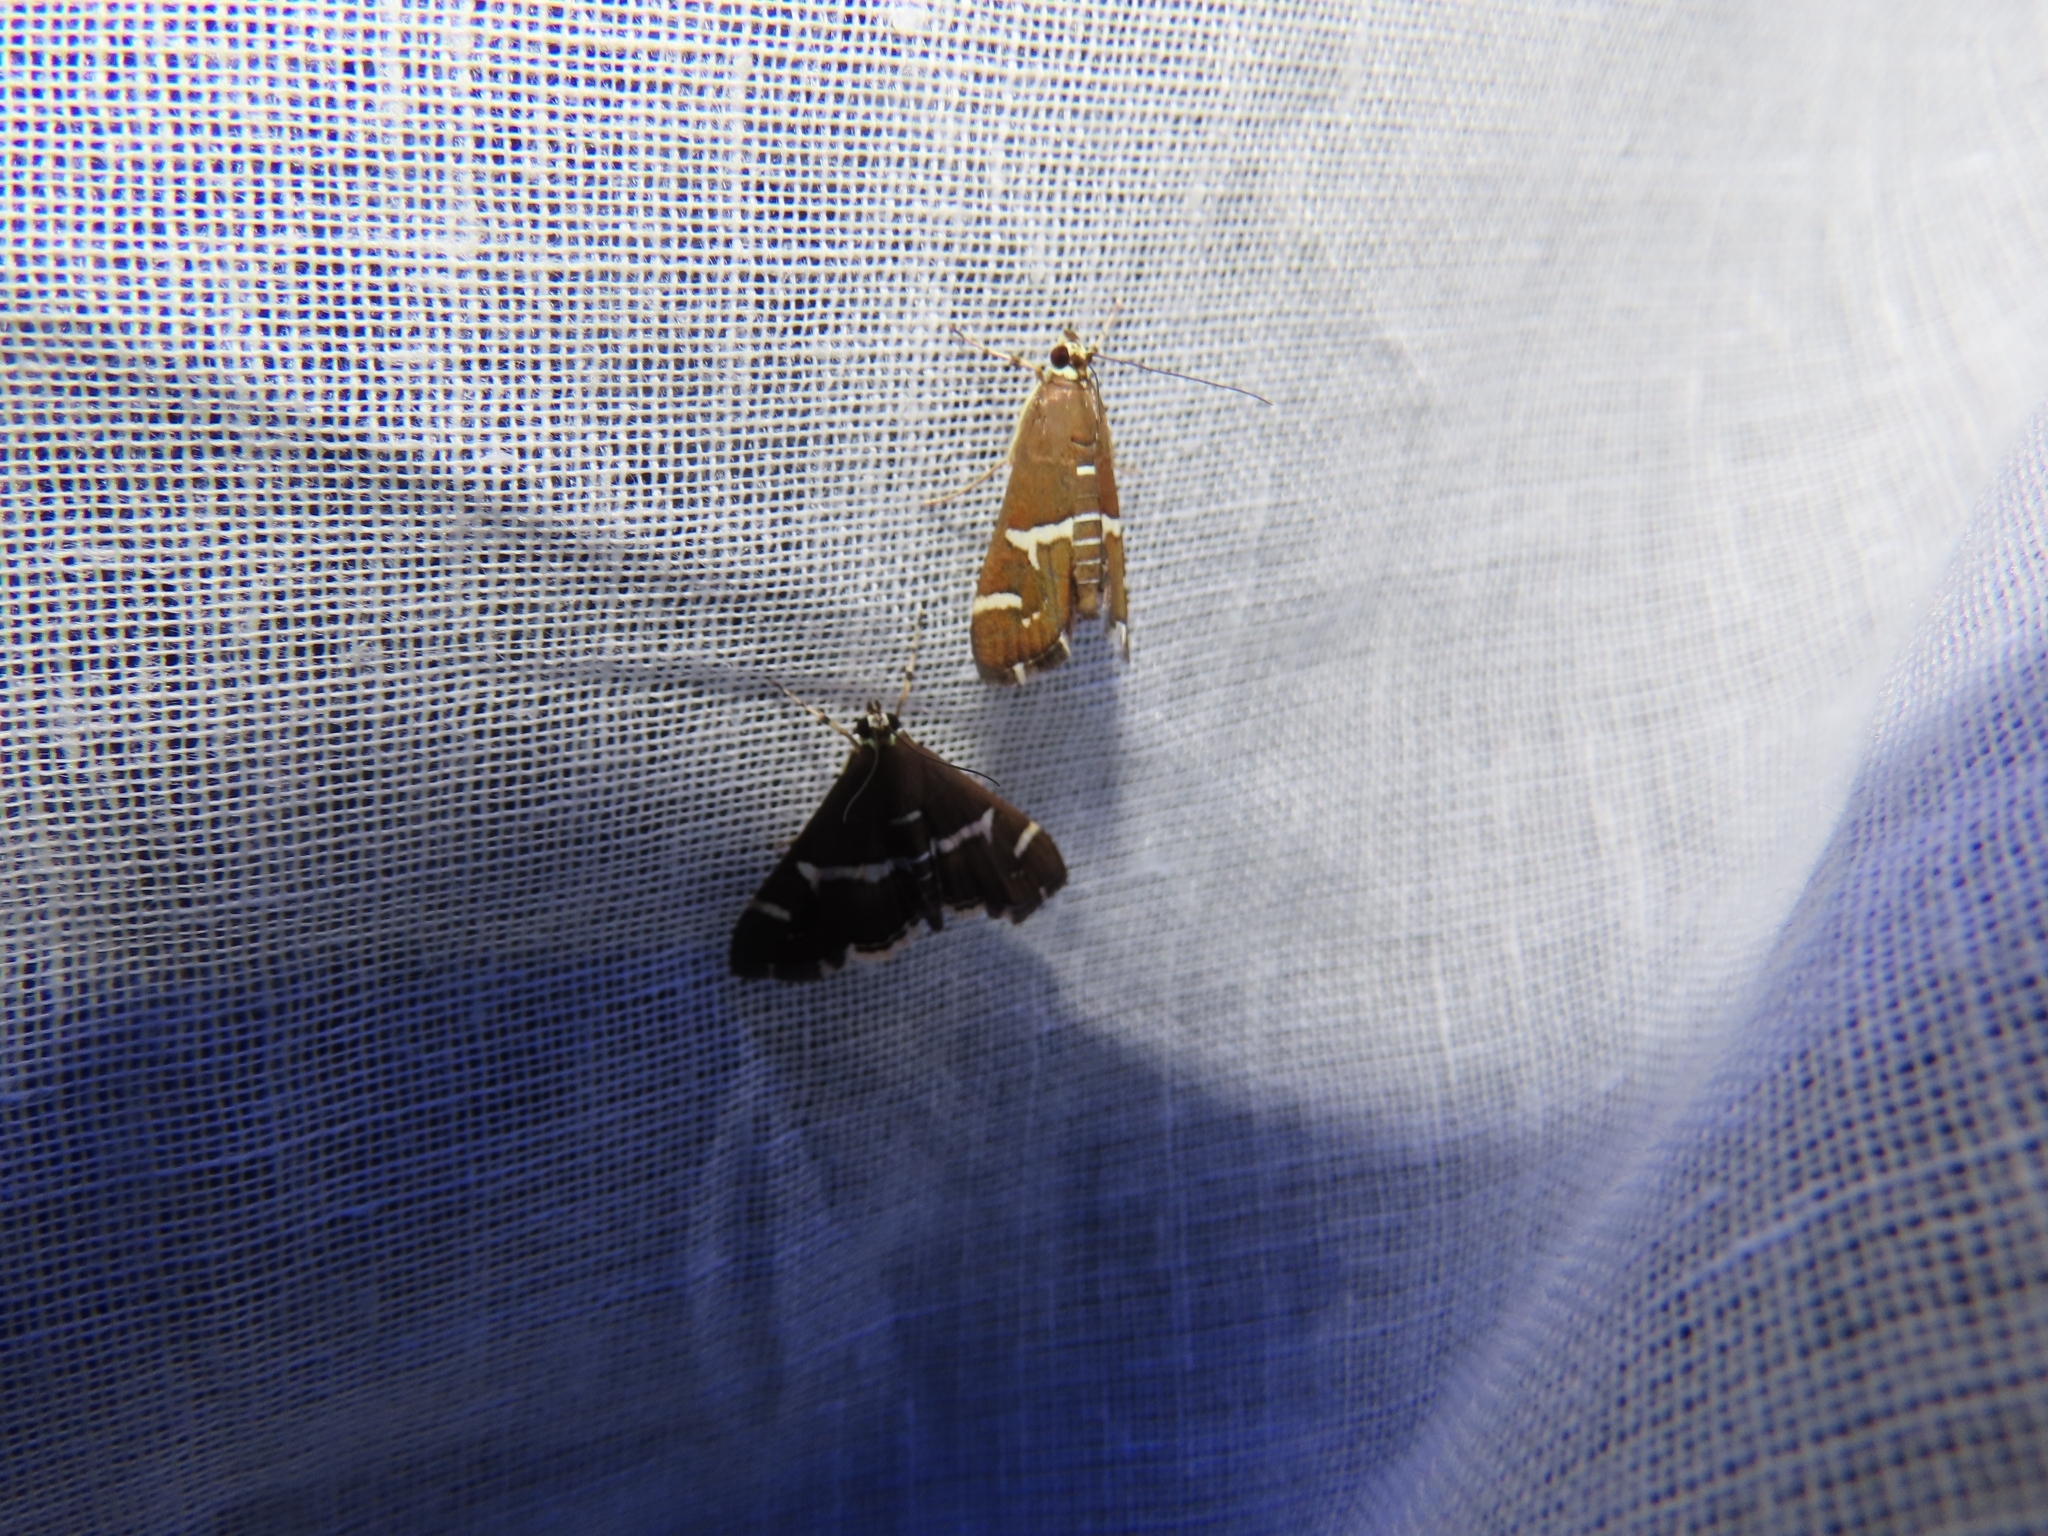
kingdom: Animalia
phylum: Arthropoda
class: Insecta
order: Lepidoptera
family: Crambidae
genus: Spoladea
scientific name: Spoladea recurvalis
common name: Beet webworm moth
